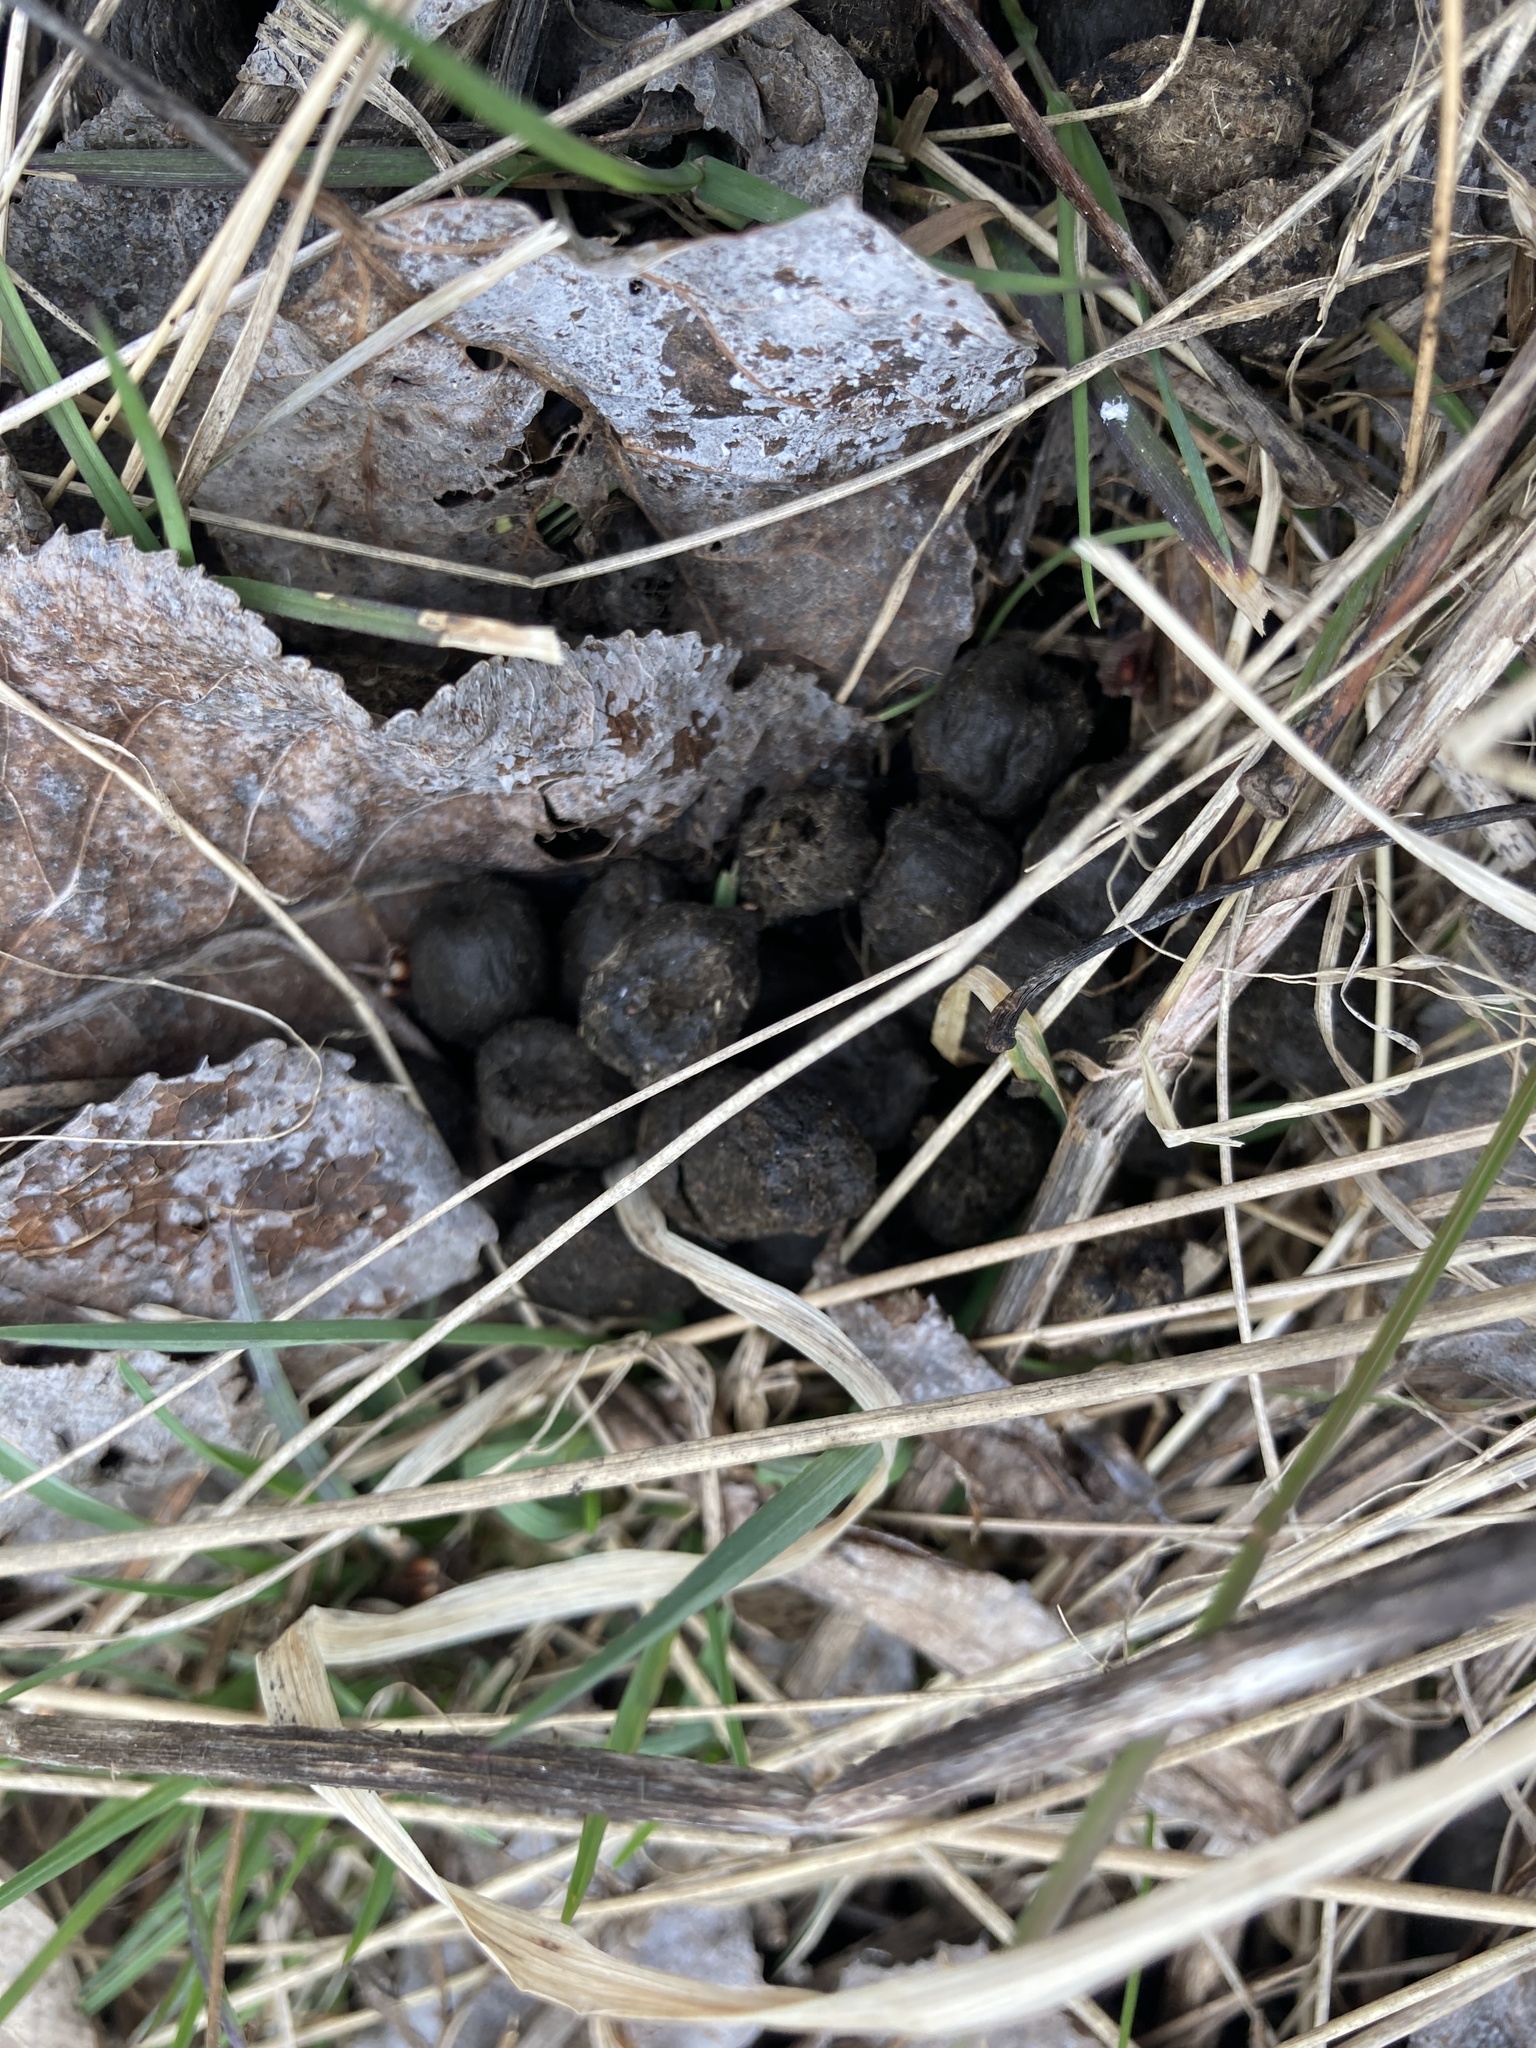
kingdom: Animalia
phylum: Chordata
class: Mammalia
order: Artiodactyla
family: Cervidae
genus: Odocoileus
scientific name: Odocoileus virginianus
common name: White-tailed deer
